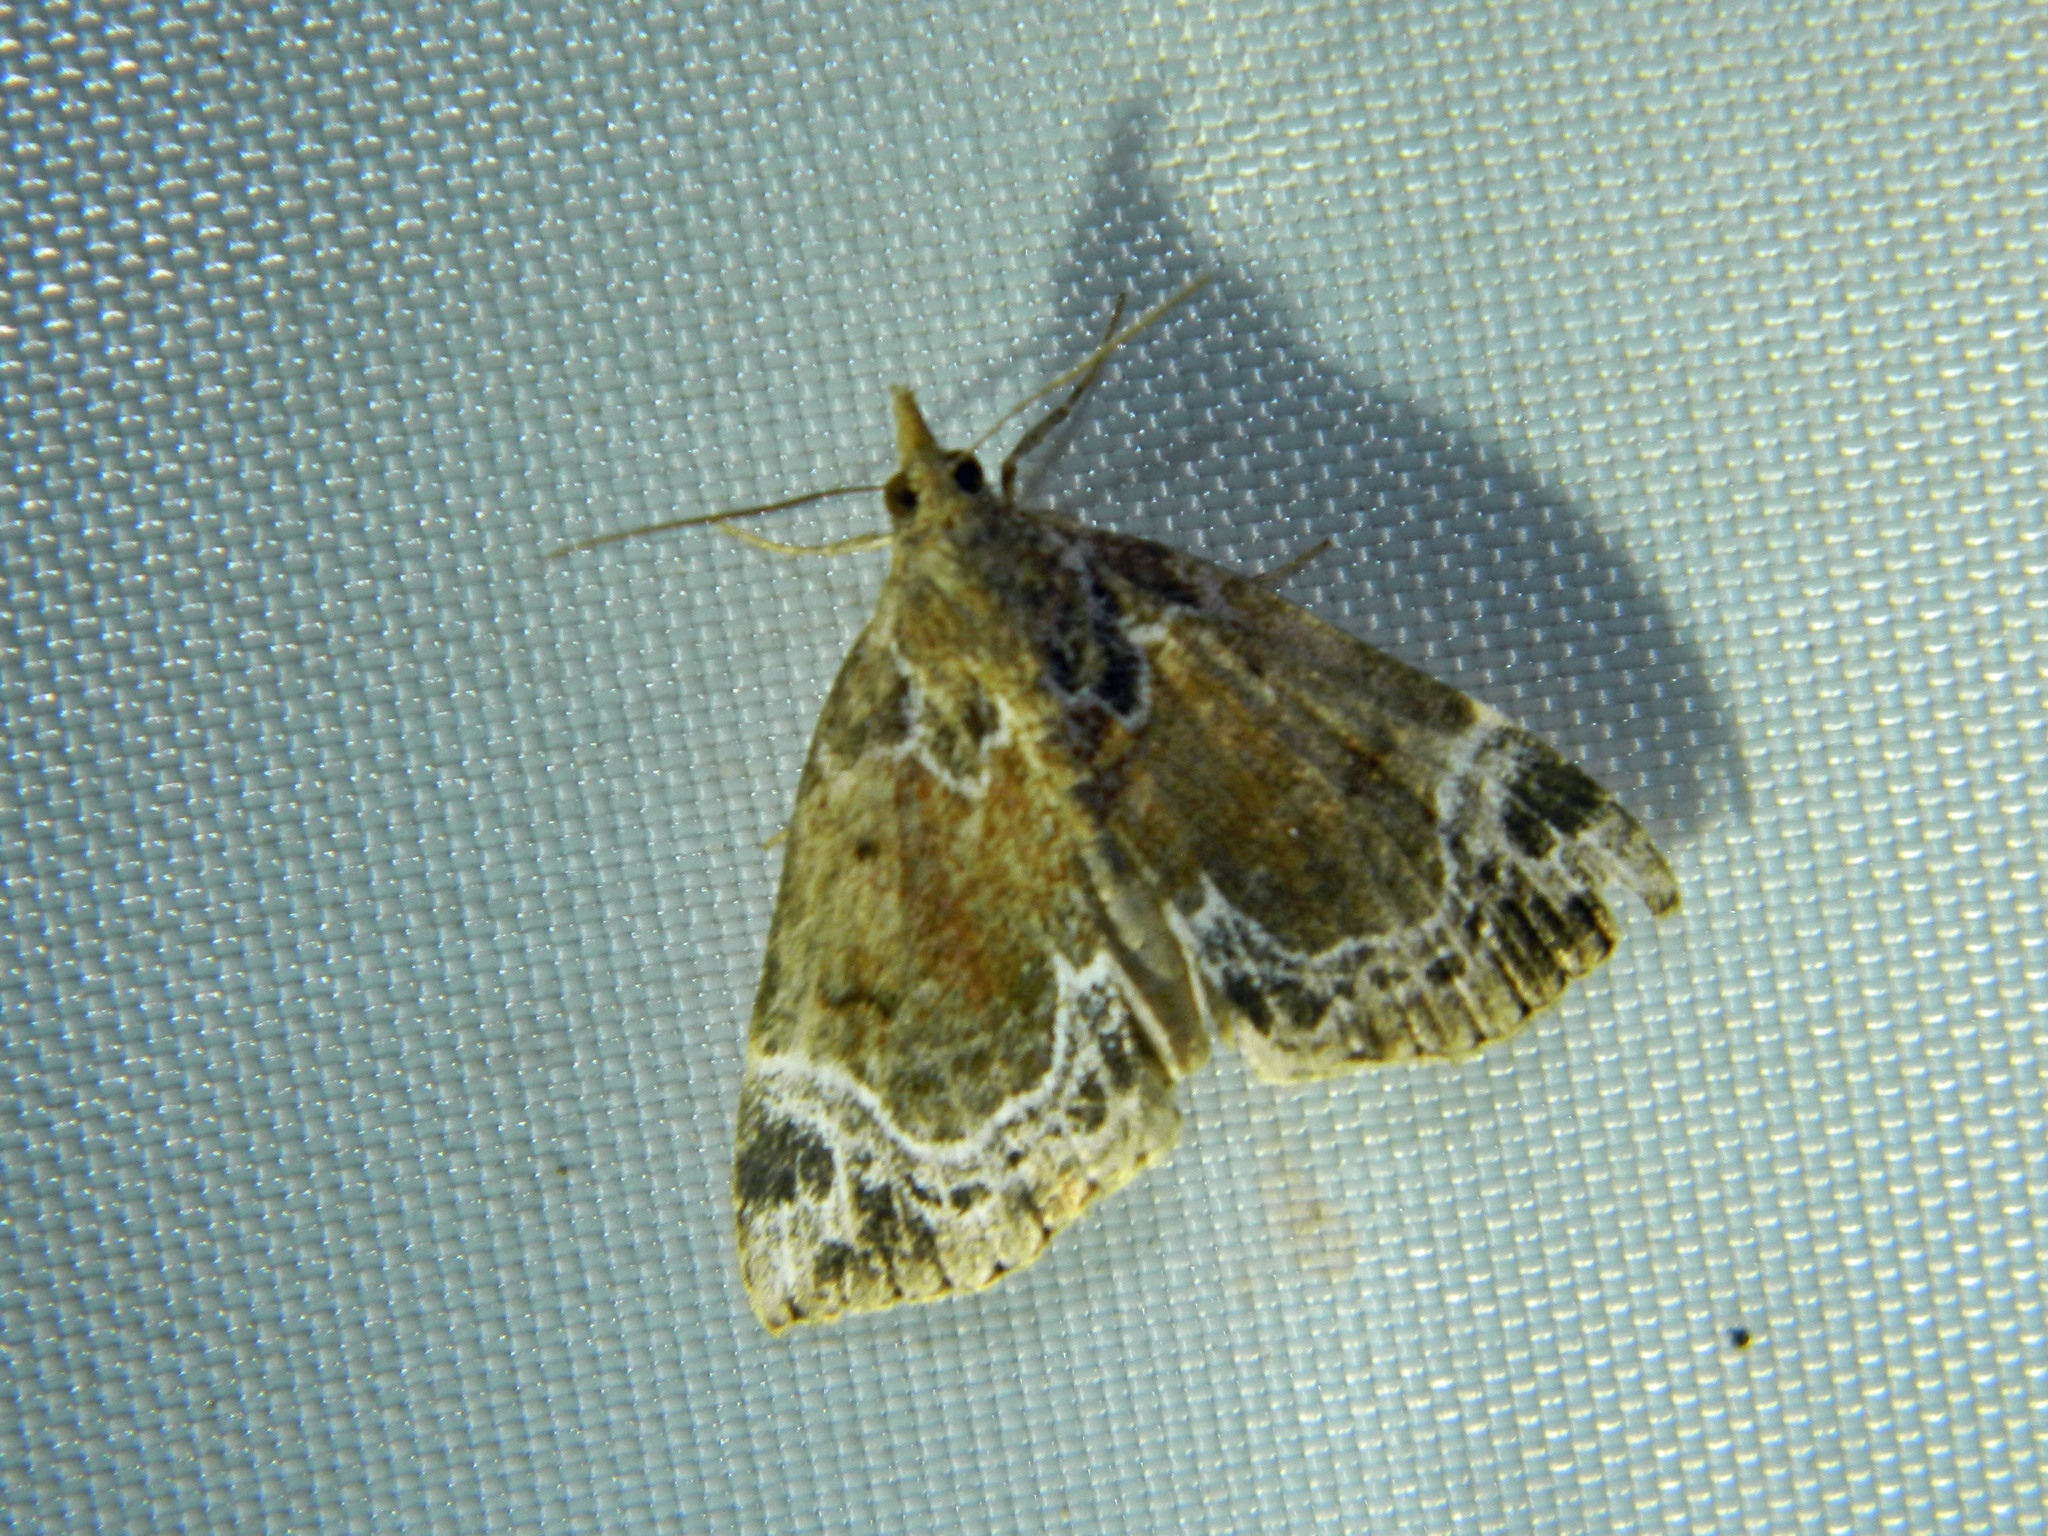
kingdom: Animalia
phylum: Arthropoda
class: Insecta
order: Lepidoptera
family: Erebidae
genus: Hypena
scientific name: Hypena abalienalis
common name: White-lined snout
